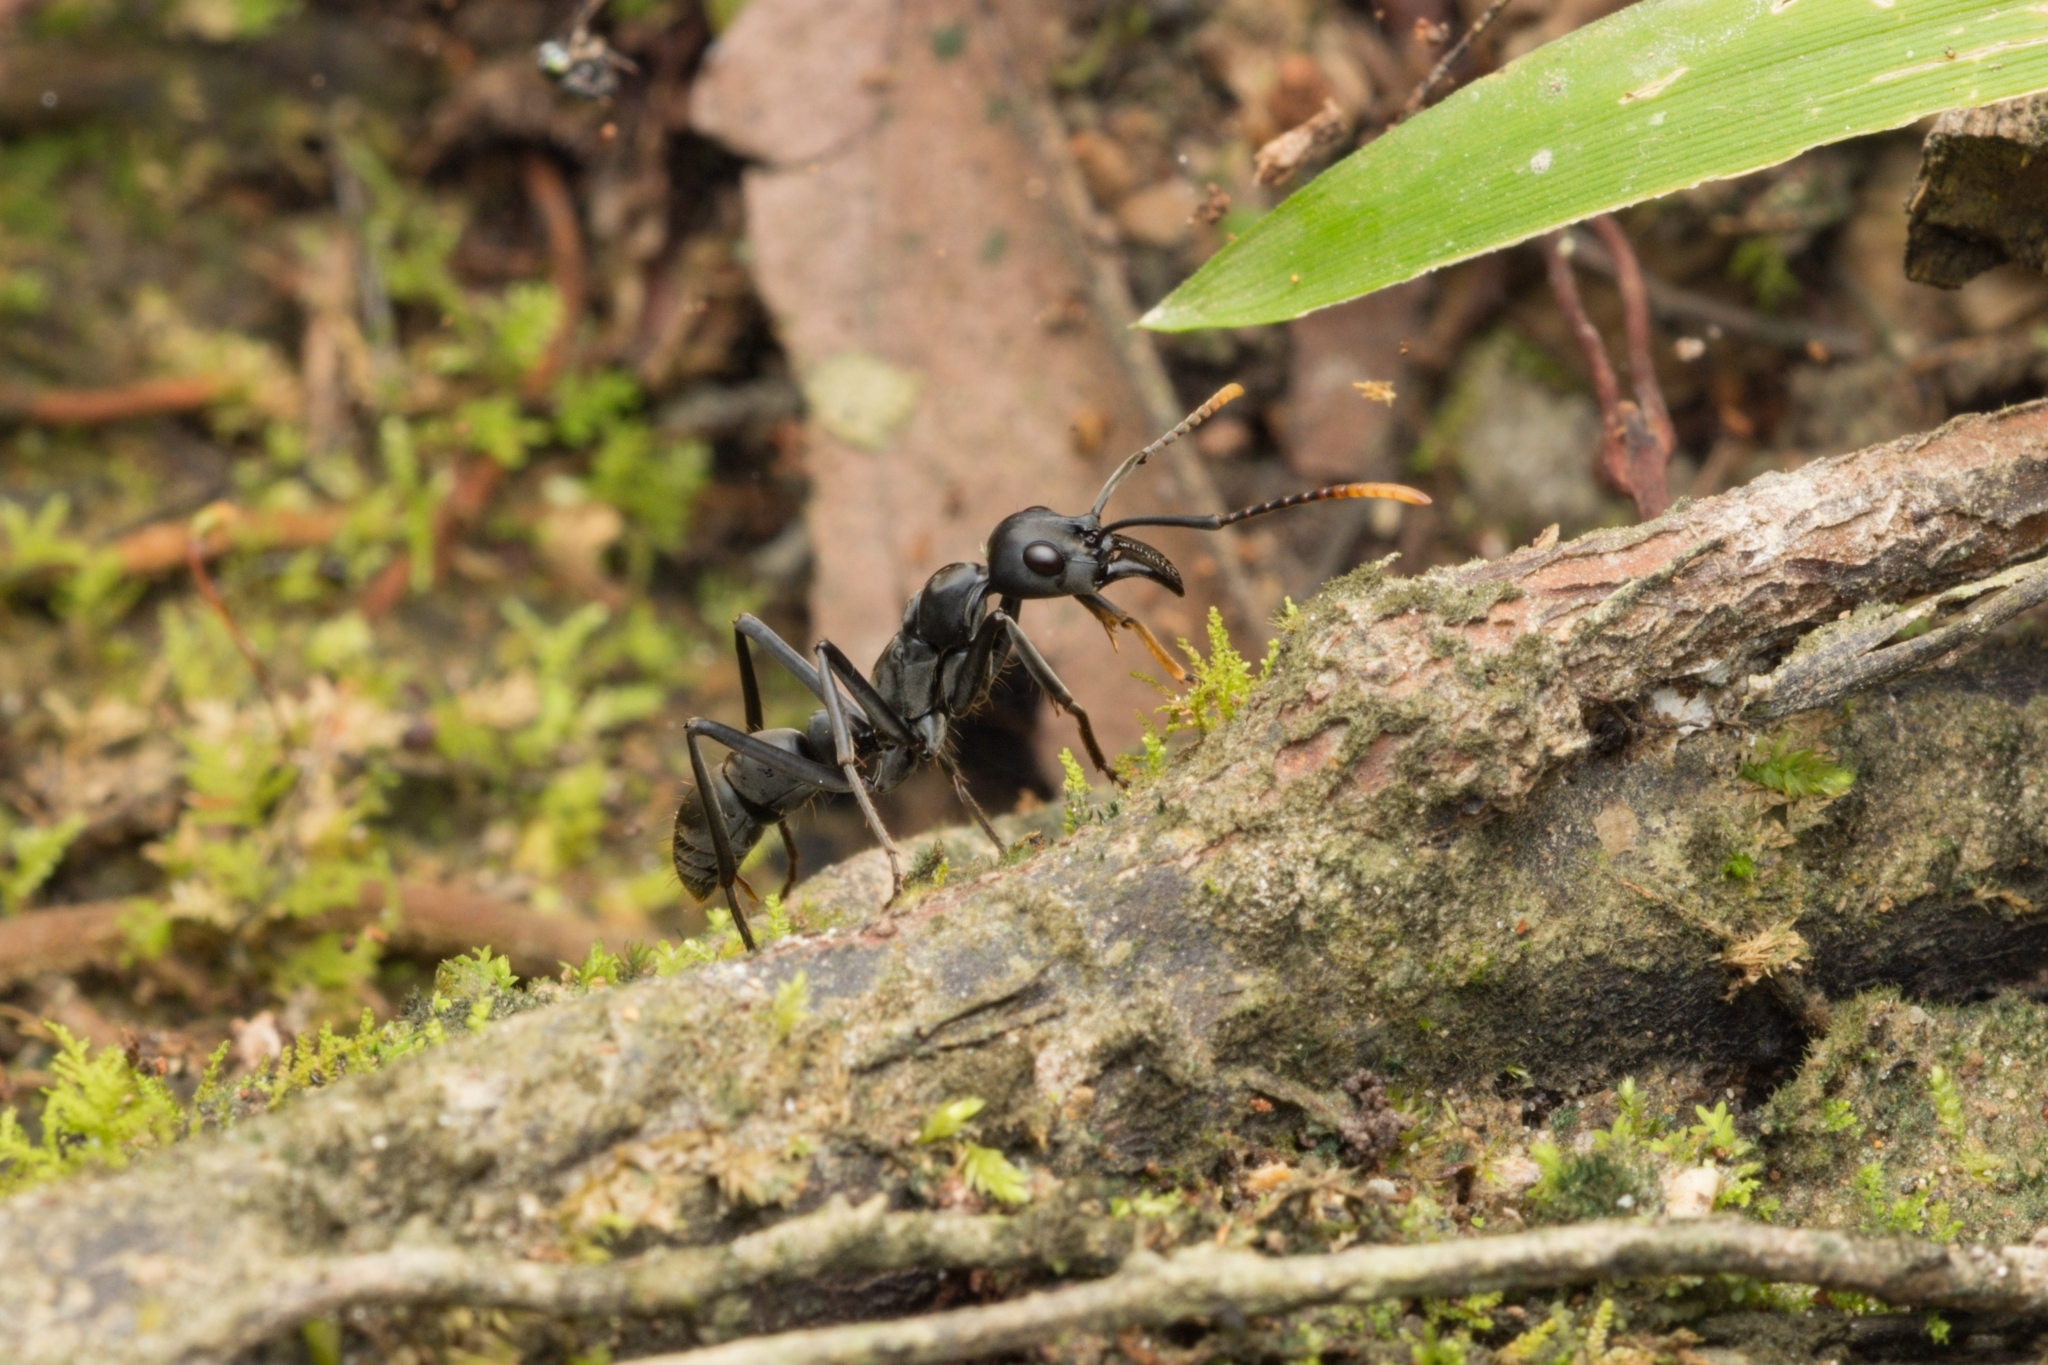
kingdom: Animalia
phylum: Arthropoda
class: Insecta
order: Hymenoptera
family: Formicidae
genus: Pachycondyla
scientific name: Pachycondyla apicalis
